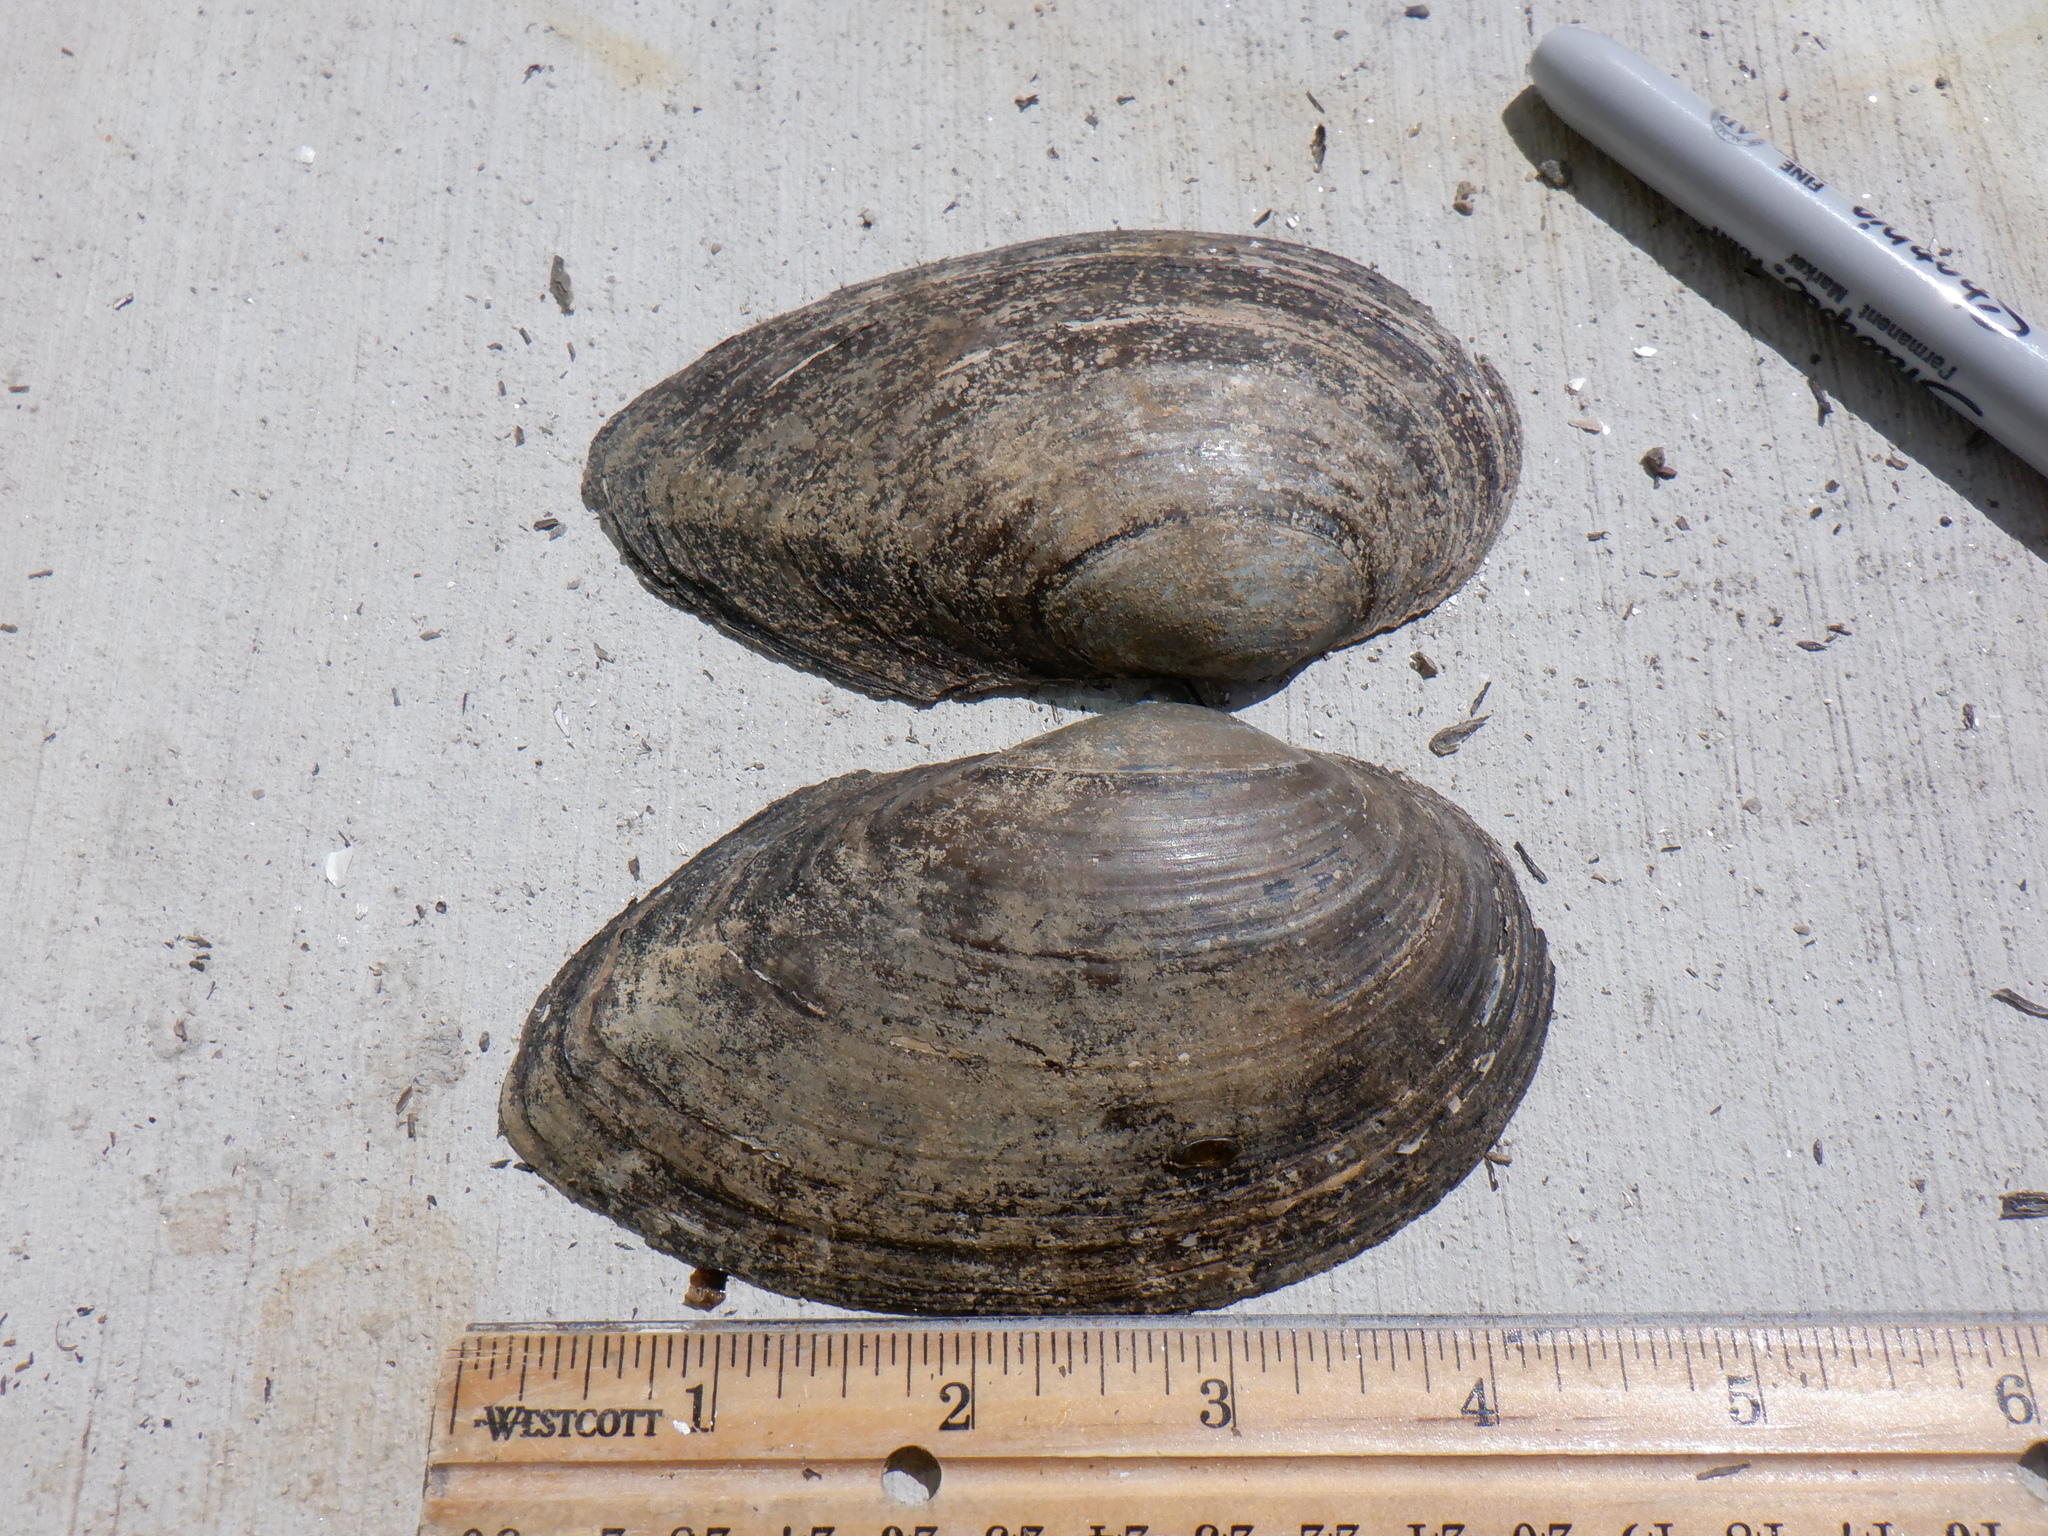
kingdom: Animalia
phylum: Mollusca
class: Bivalvia
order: Unionida
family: Unionidae
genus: Pyganodon
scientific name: Pyganodon grandis
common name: Giant floater
